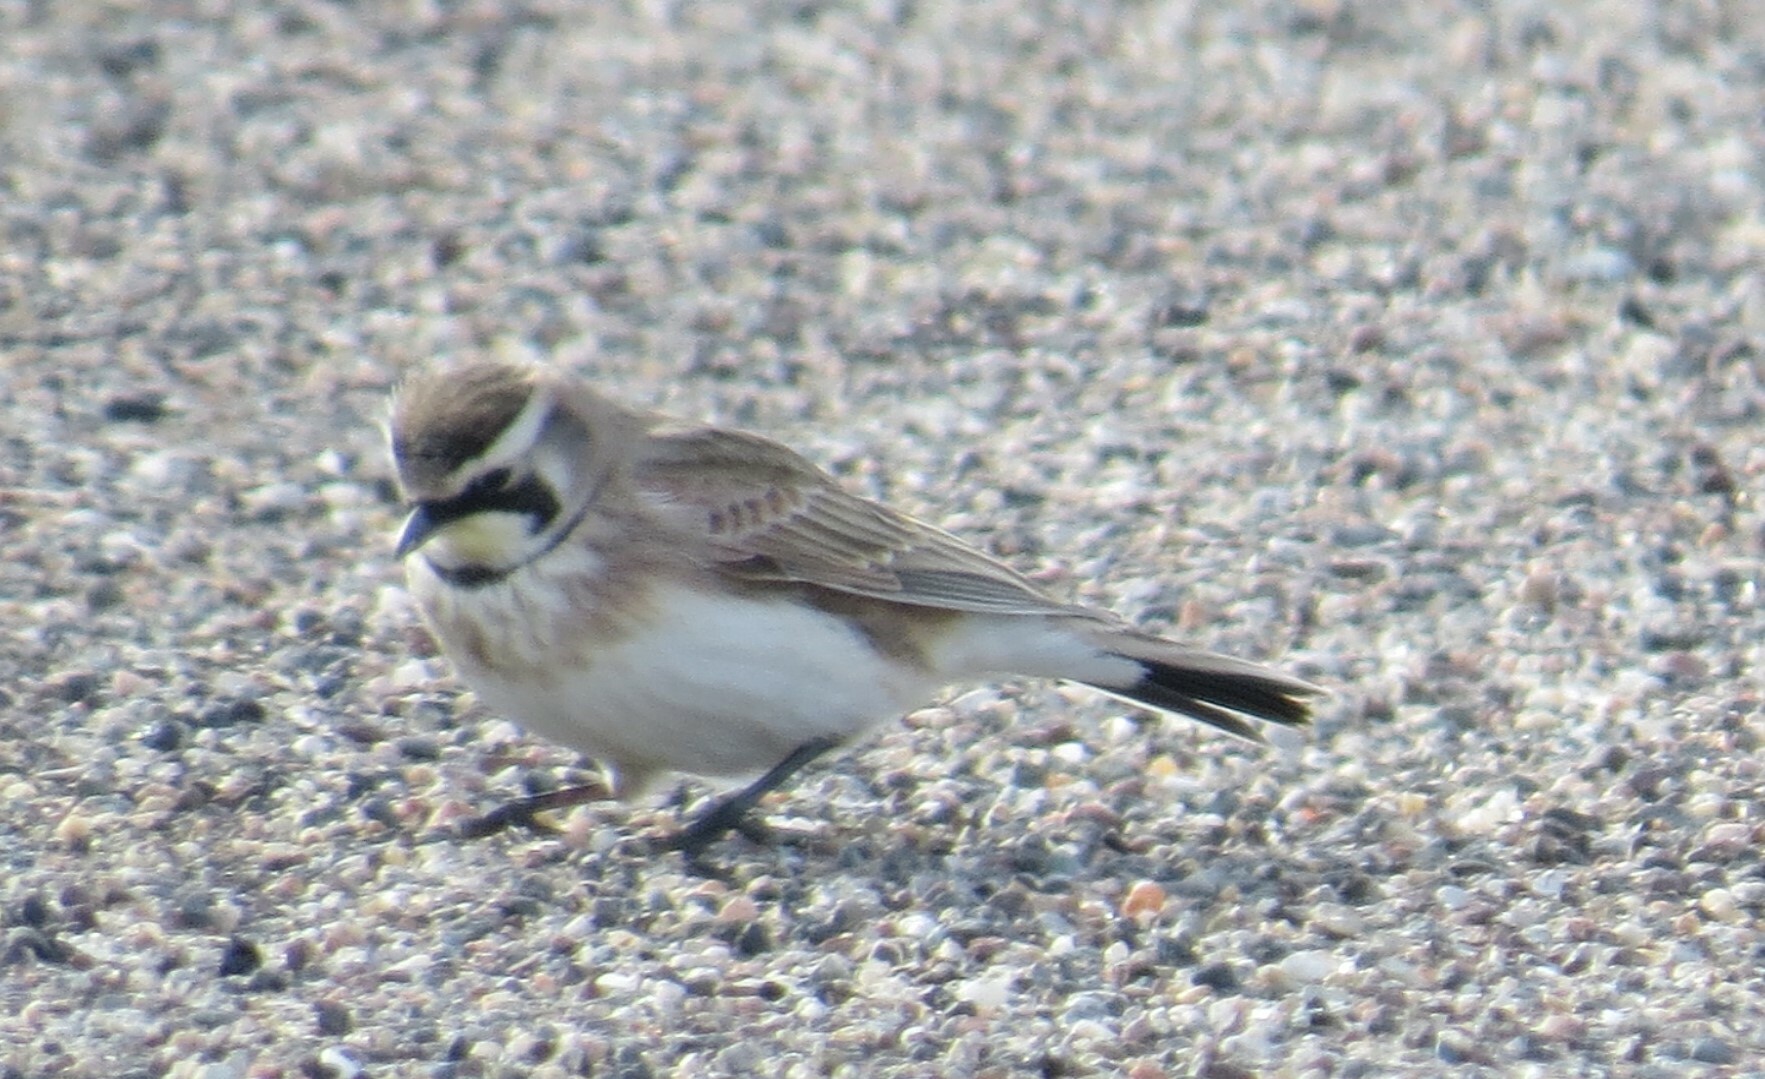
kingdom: Animalia
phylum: Chordata
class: Aves
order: Passeriformes
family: Alaudidae
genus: Eremophila
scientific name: Eremophila alpestris
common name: Horned lark
